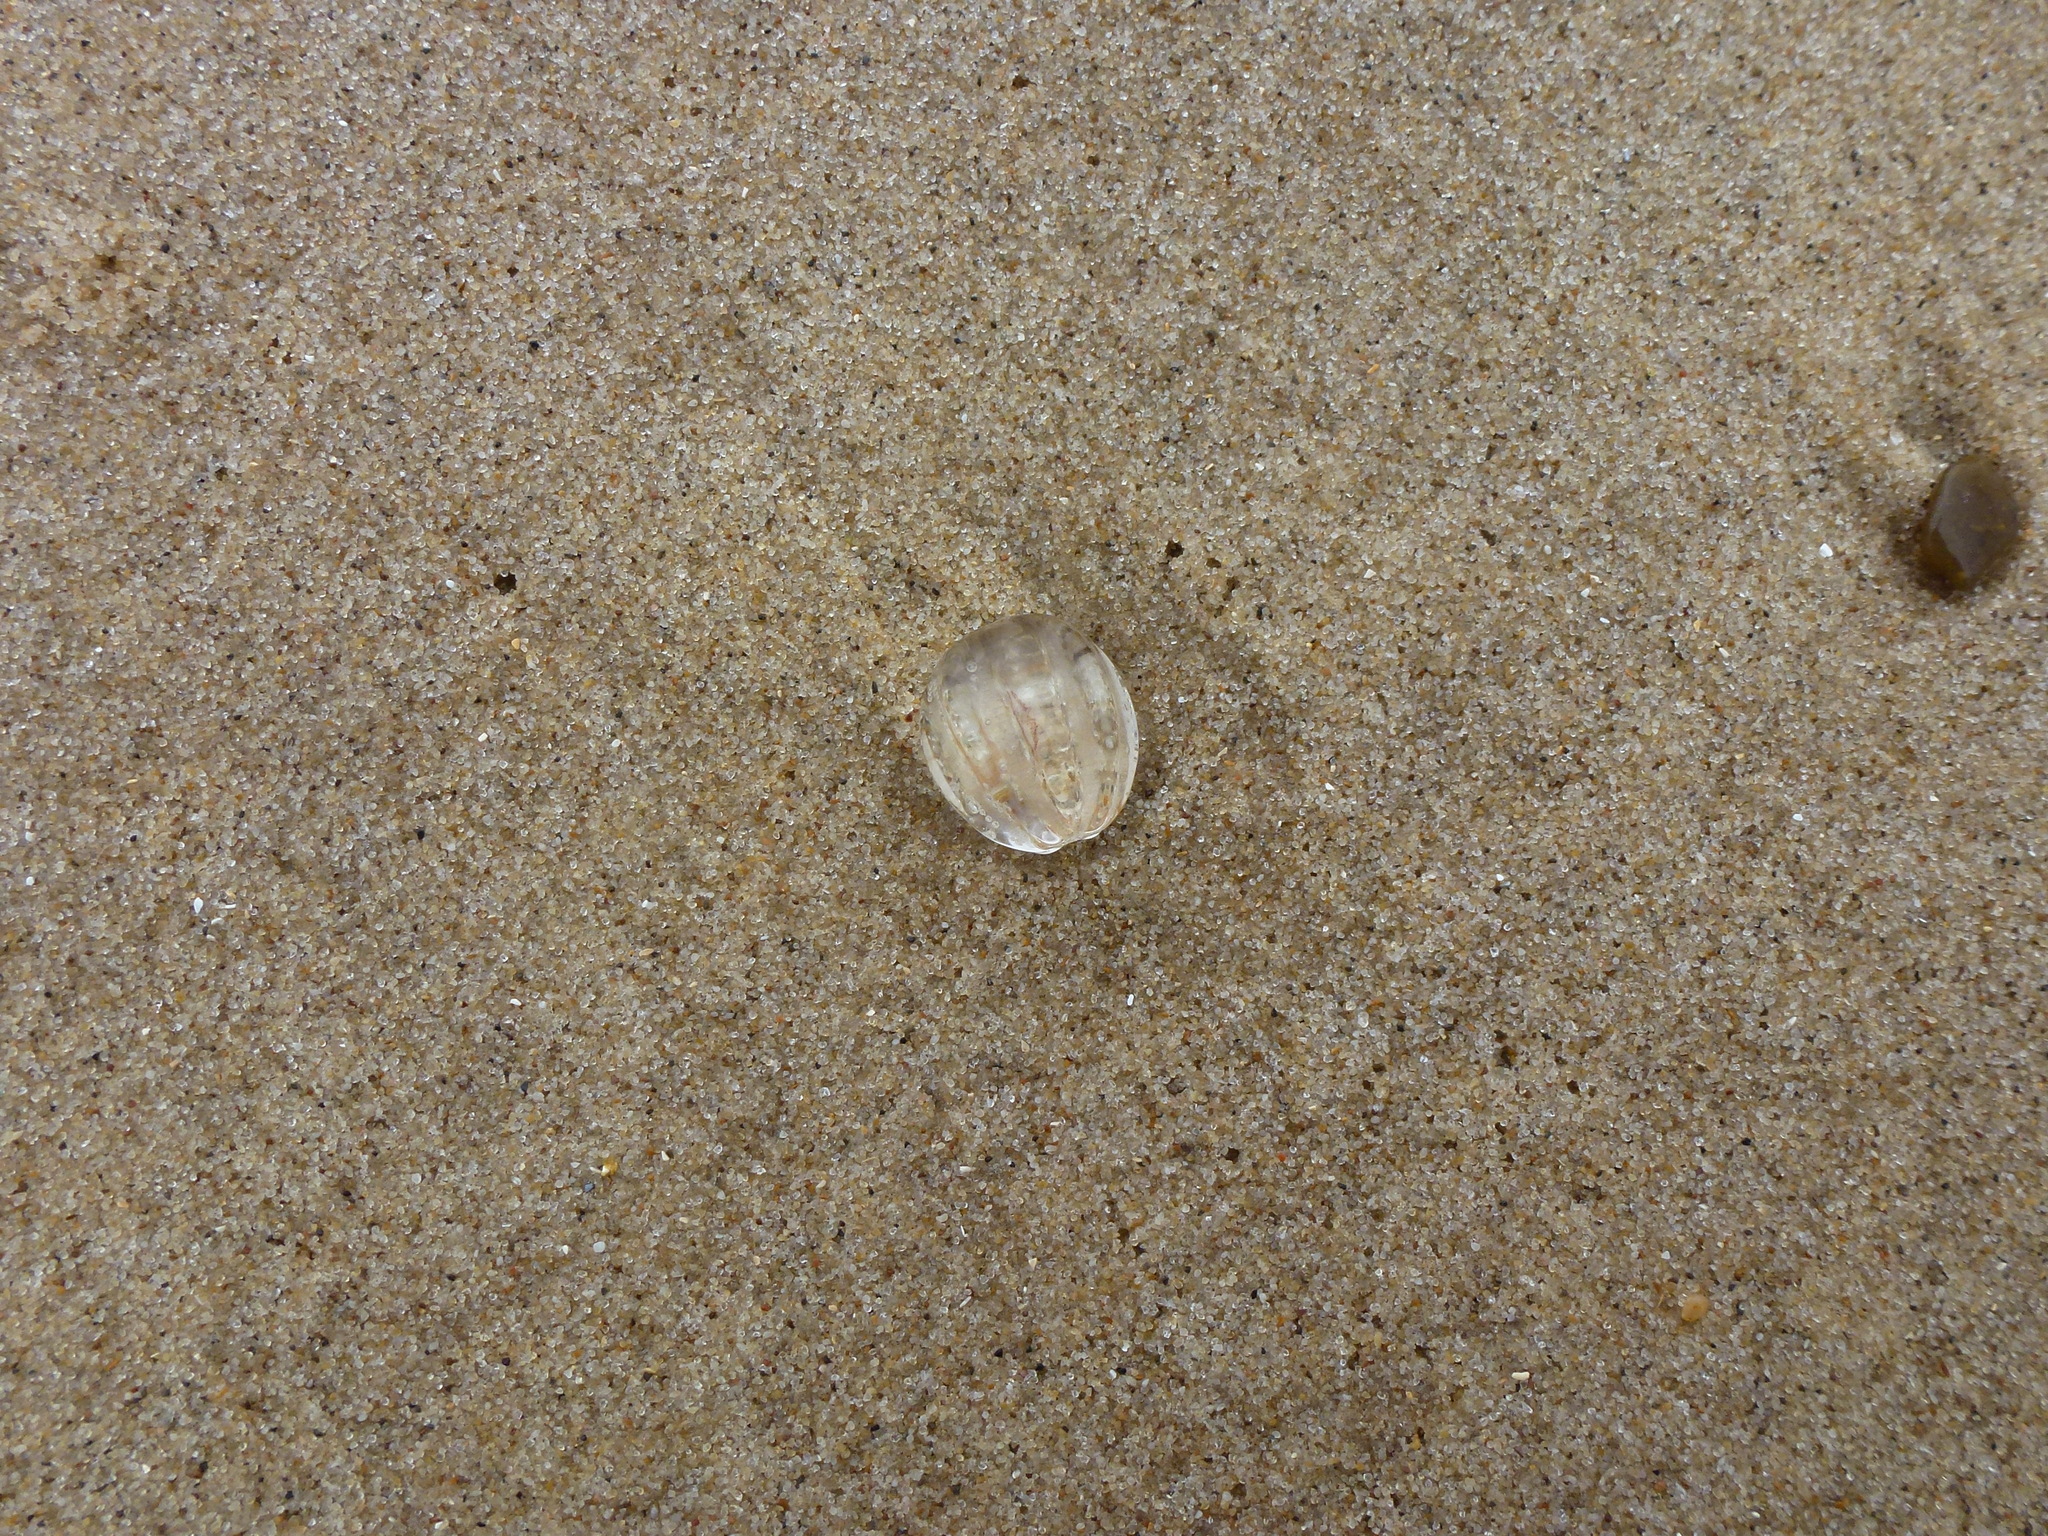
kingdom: Animalia
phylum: Ctenophora
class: Tentaculata
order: Cydippida
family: Pleurobrachiidae
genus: Pleurobrachia
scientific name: Pleurobrachia pileus
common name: Sea gooseberry
